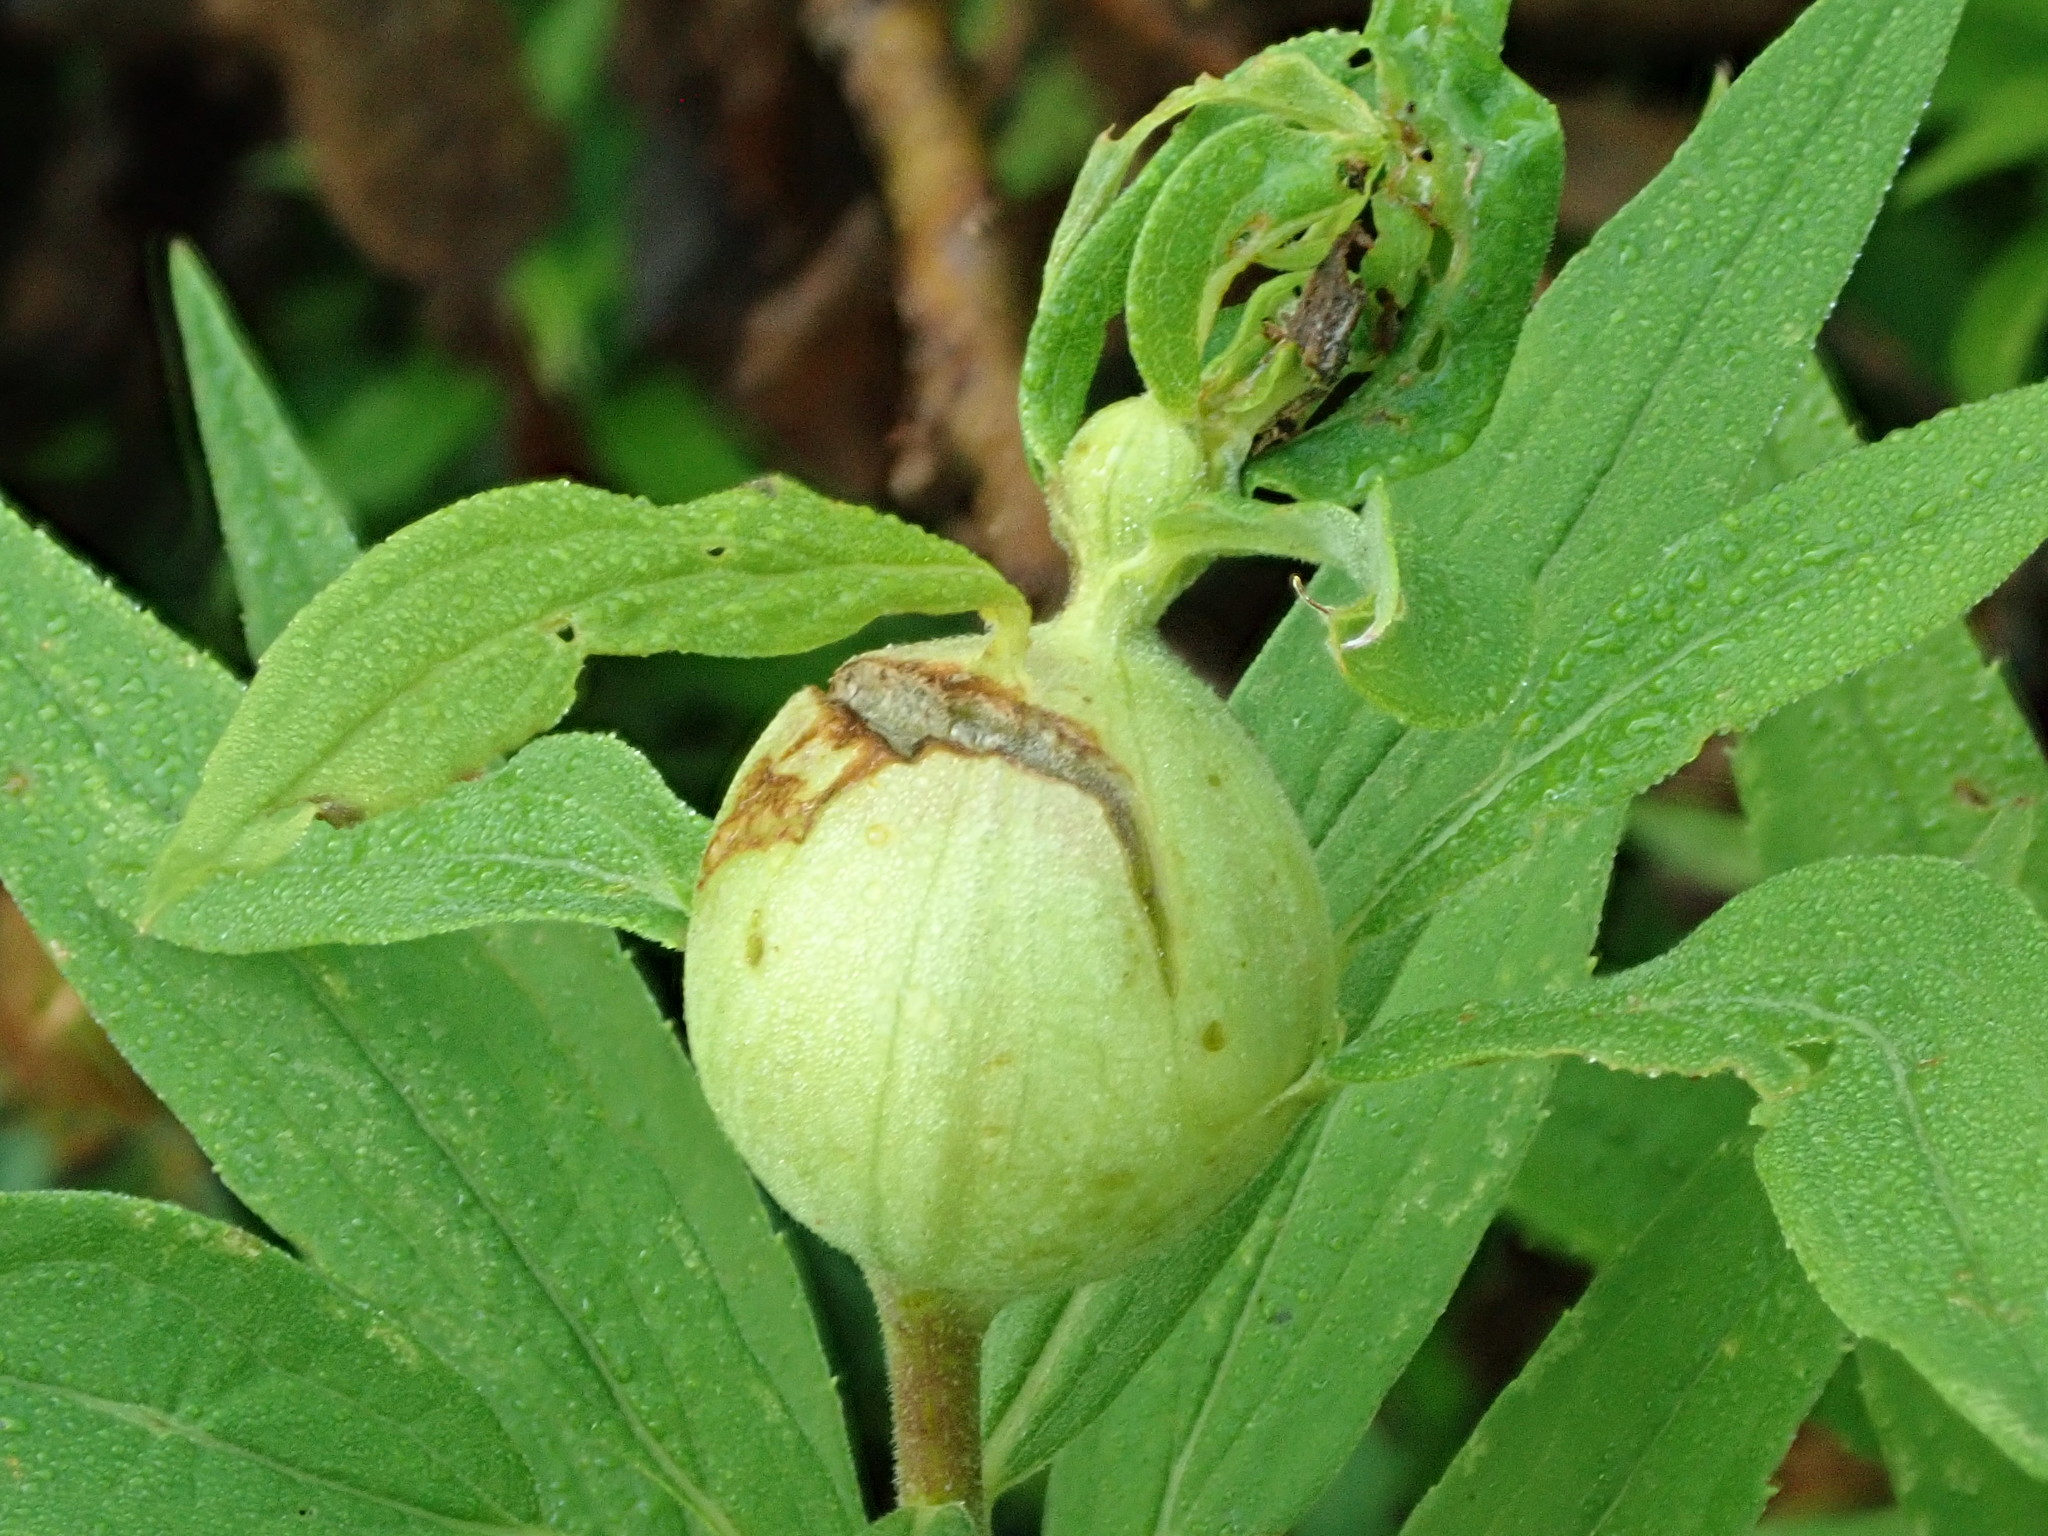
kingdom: Animalia
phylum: Arthropoda
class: Insecta
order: Diptera
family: Tephritidae
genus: Eurosta
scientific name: Eurosta solidaginis
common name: Goldenrod gall fly
